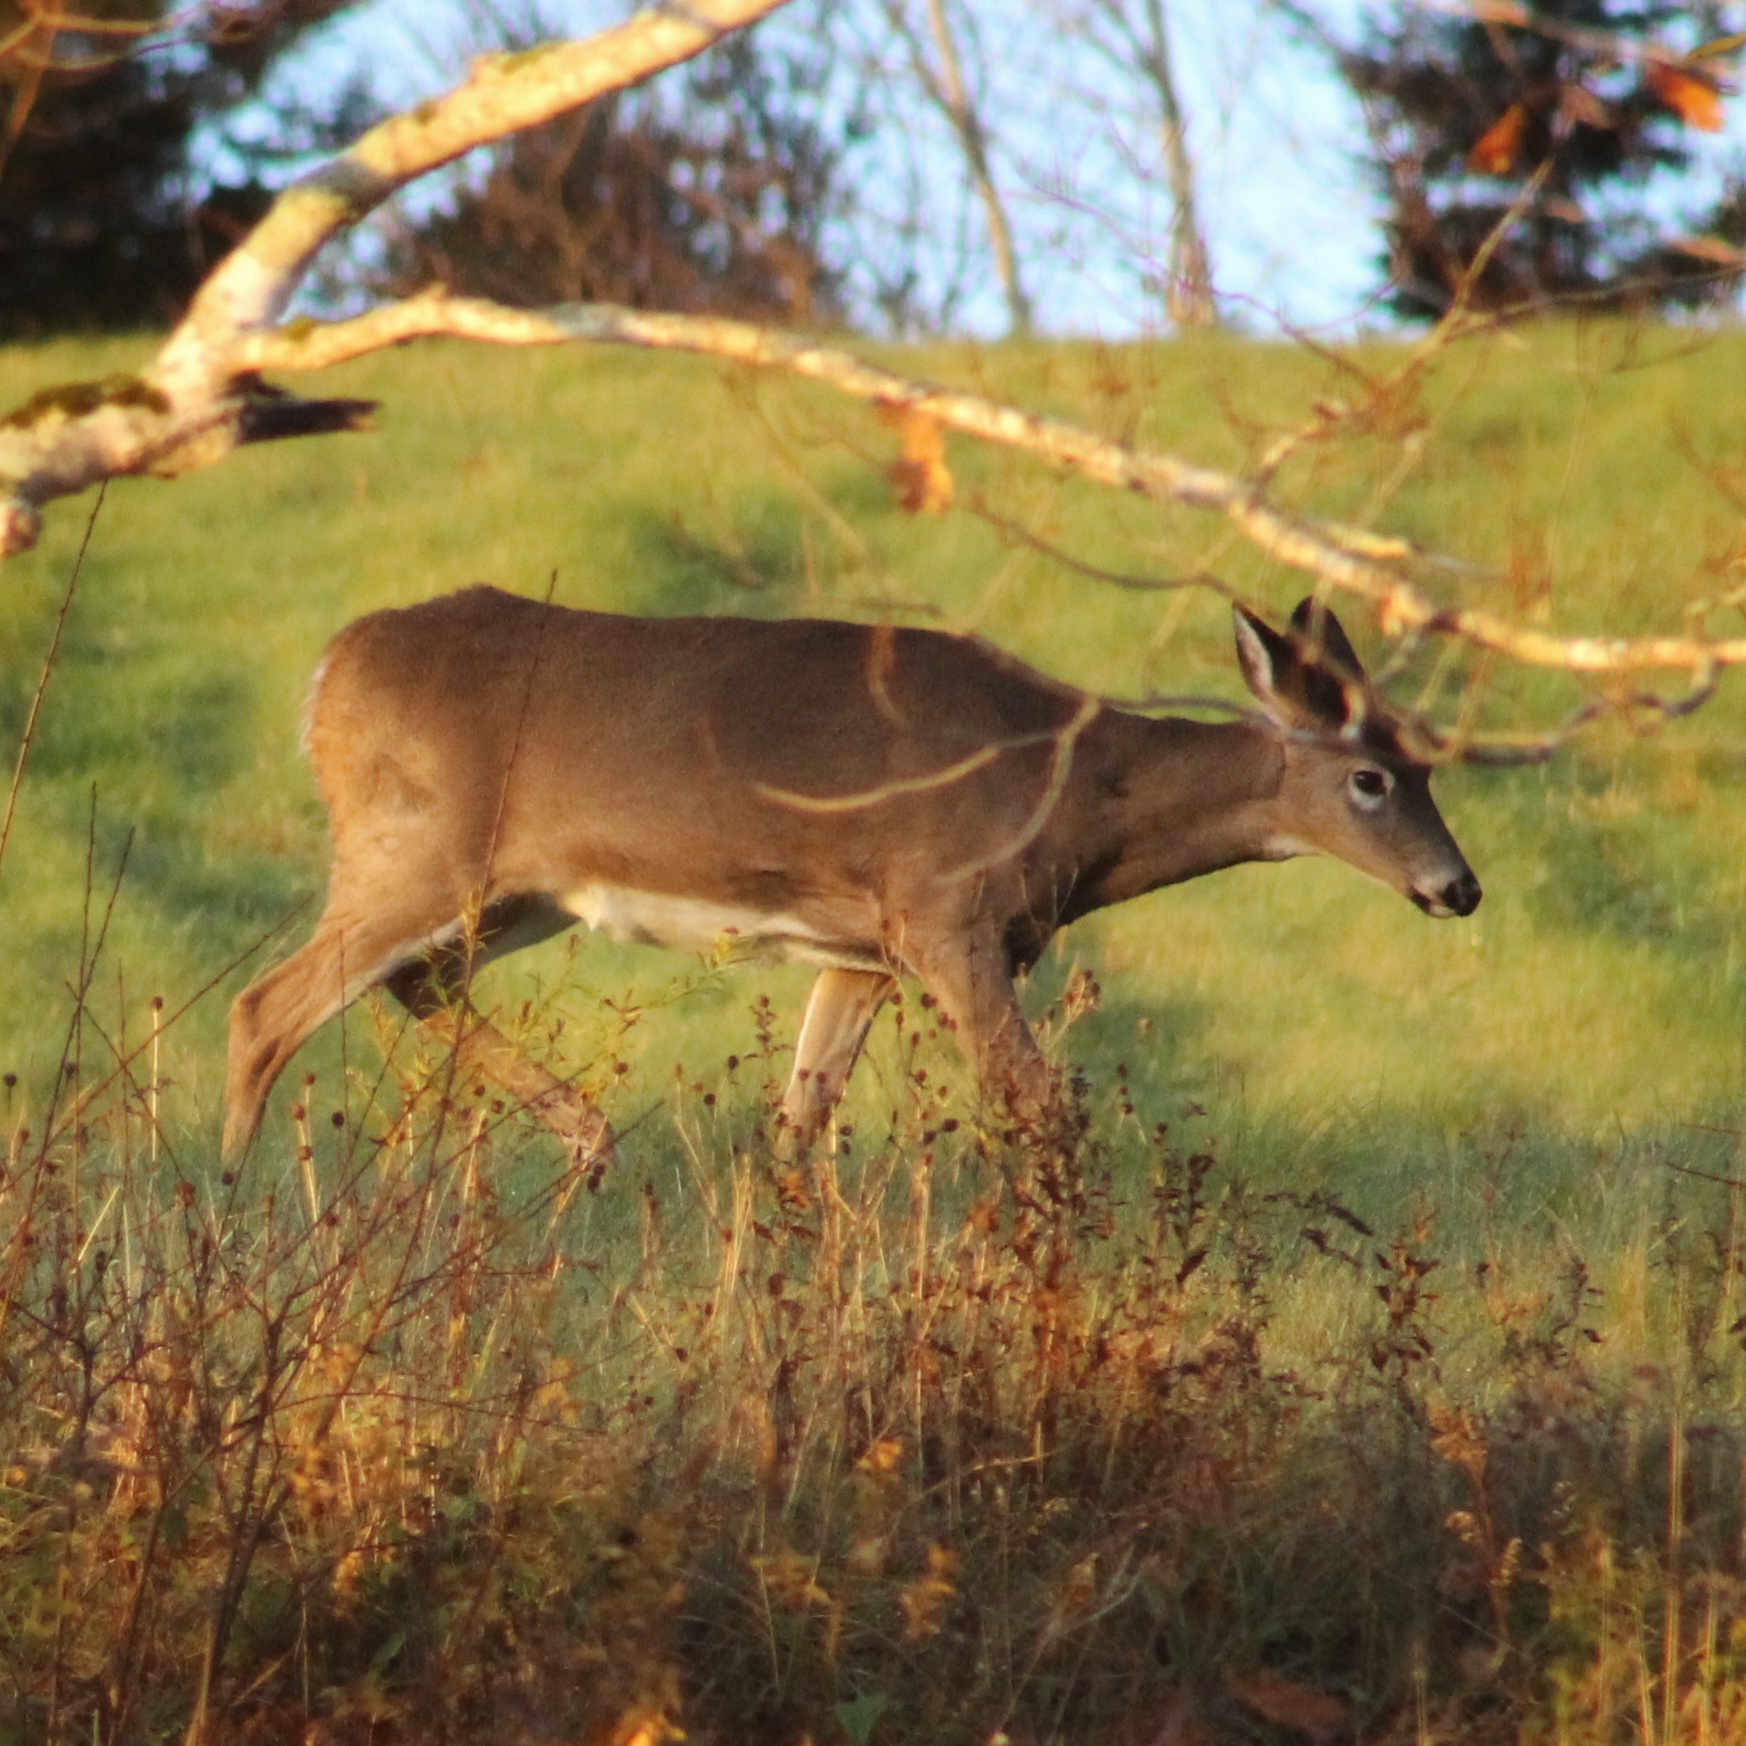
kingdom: Animalia
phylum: Chordata
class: Mammalia
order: Artiodactyla
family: Cervidae
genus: Odocoileus
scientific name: Odocoileus virginianus
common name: White-tailed deer
